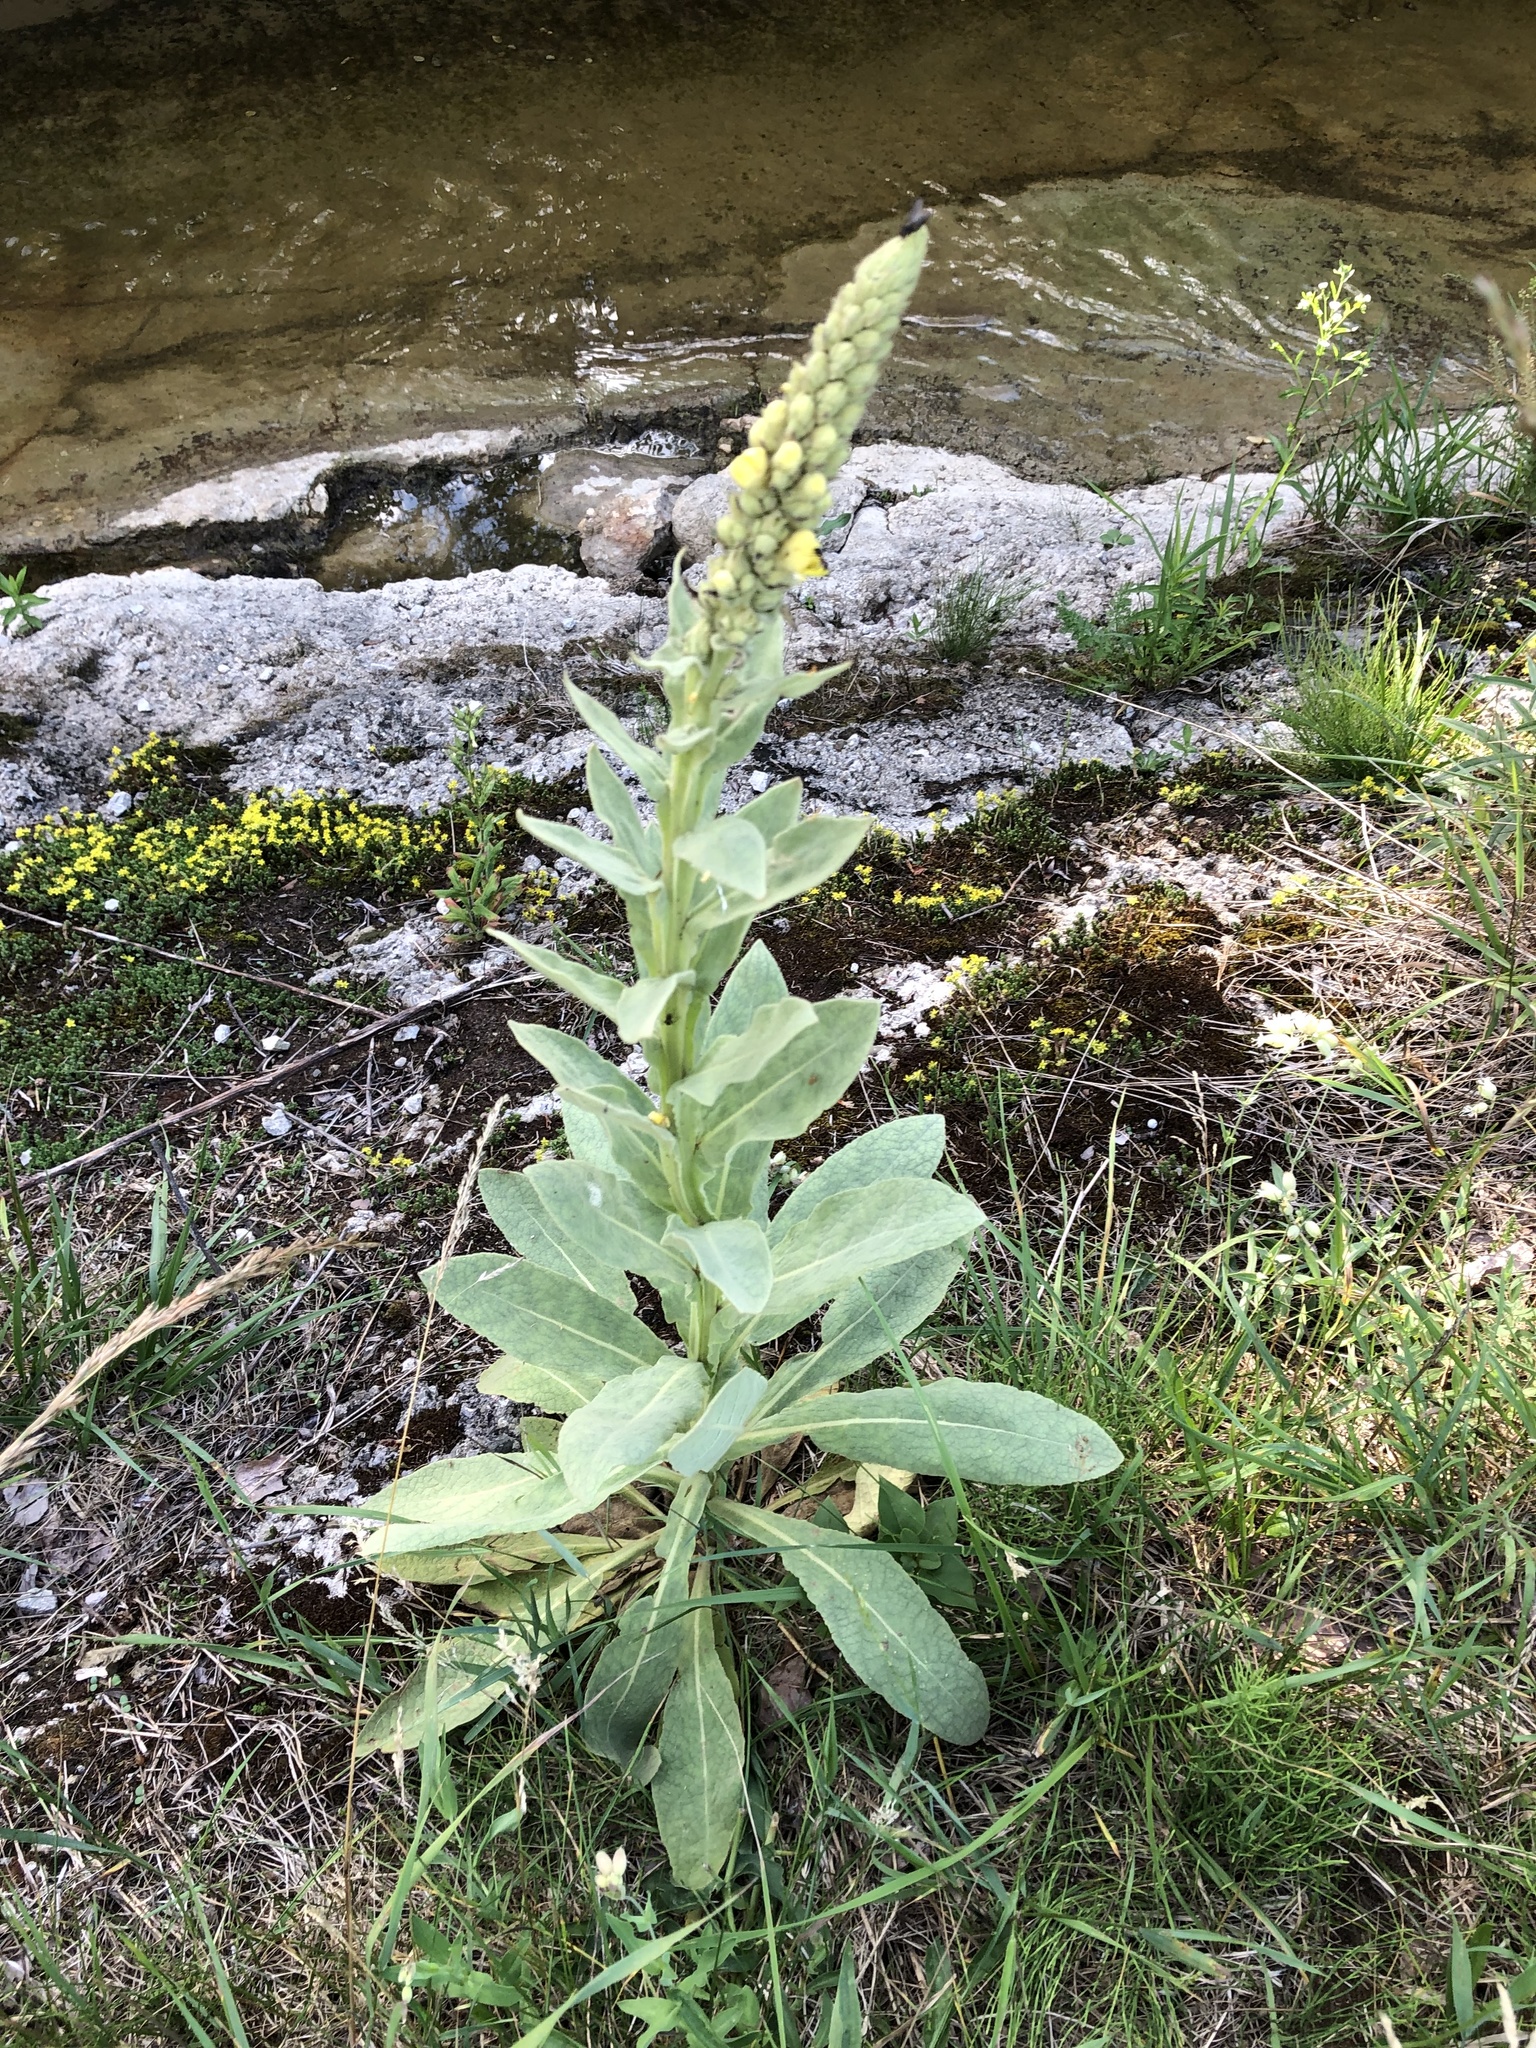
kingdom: Plantae
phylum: Tracheophyta
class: Magnoliopsida
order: Lamiales
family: Scrophulariaceae
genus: Verbascum
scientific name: Verbascum thapsus
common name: Common mullein
